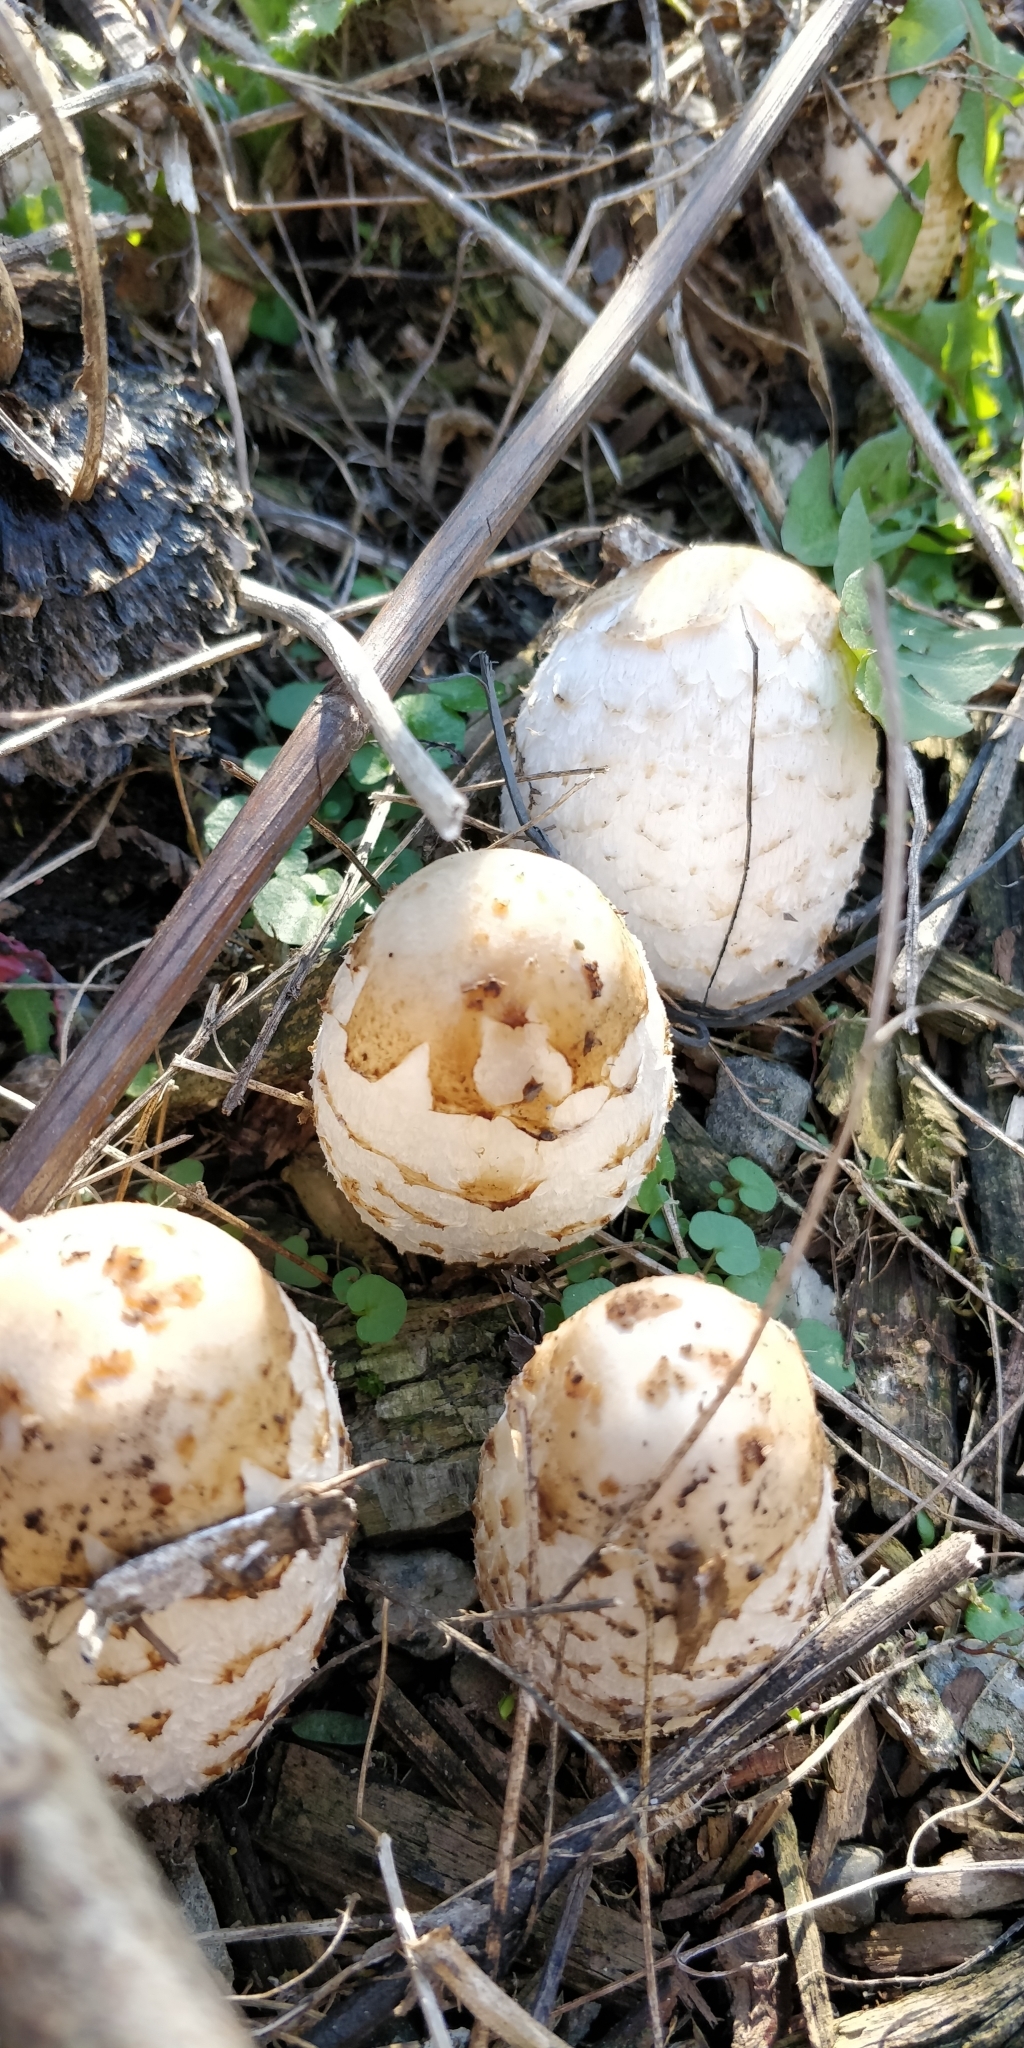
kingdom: Fungi
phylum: Basidiomycota
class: Agaricomycetes
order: Agaricales
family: Agaricaceae
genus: Coprinus
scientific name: Coprinus comatus
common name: Lawyer's wig
